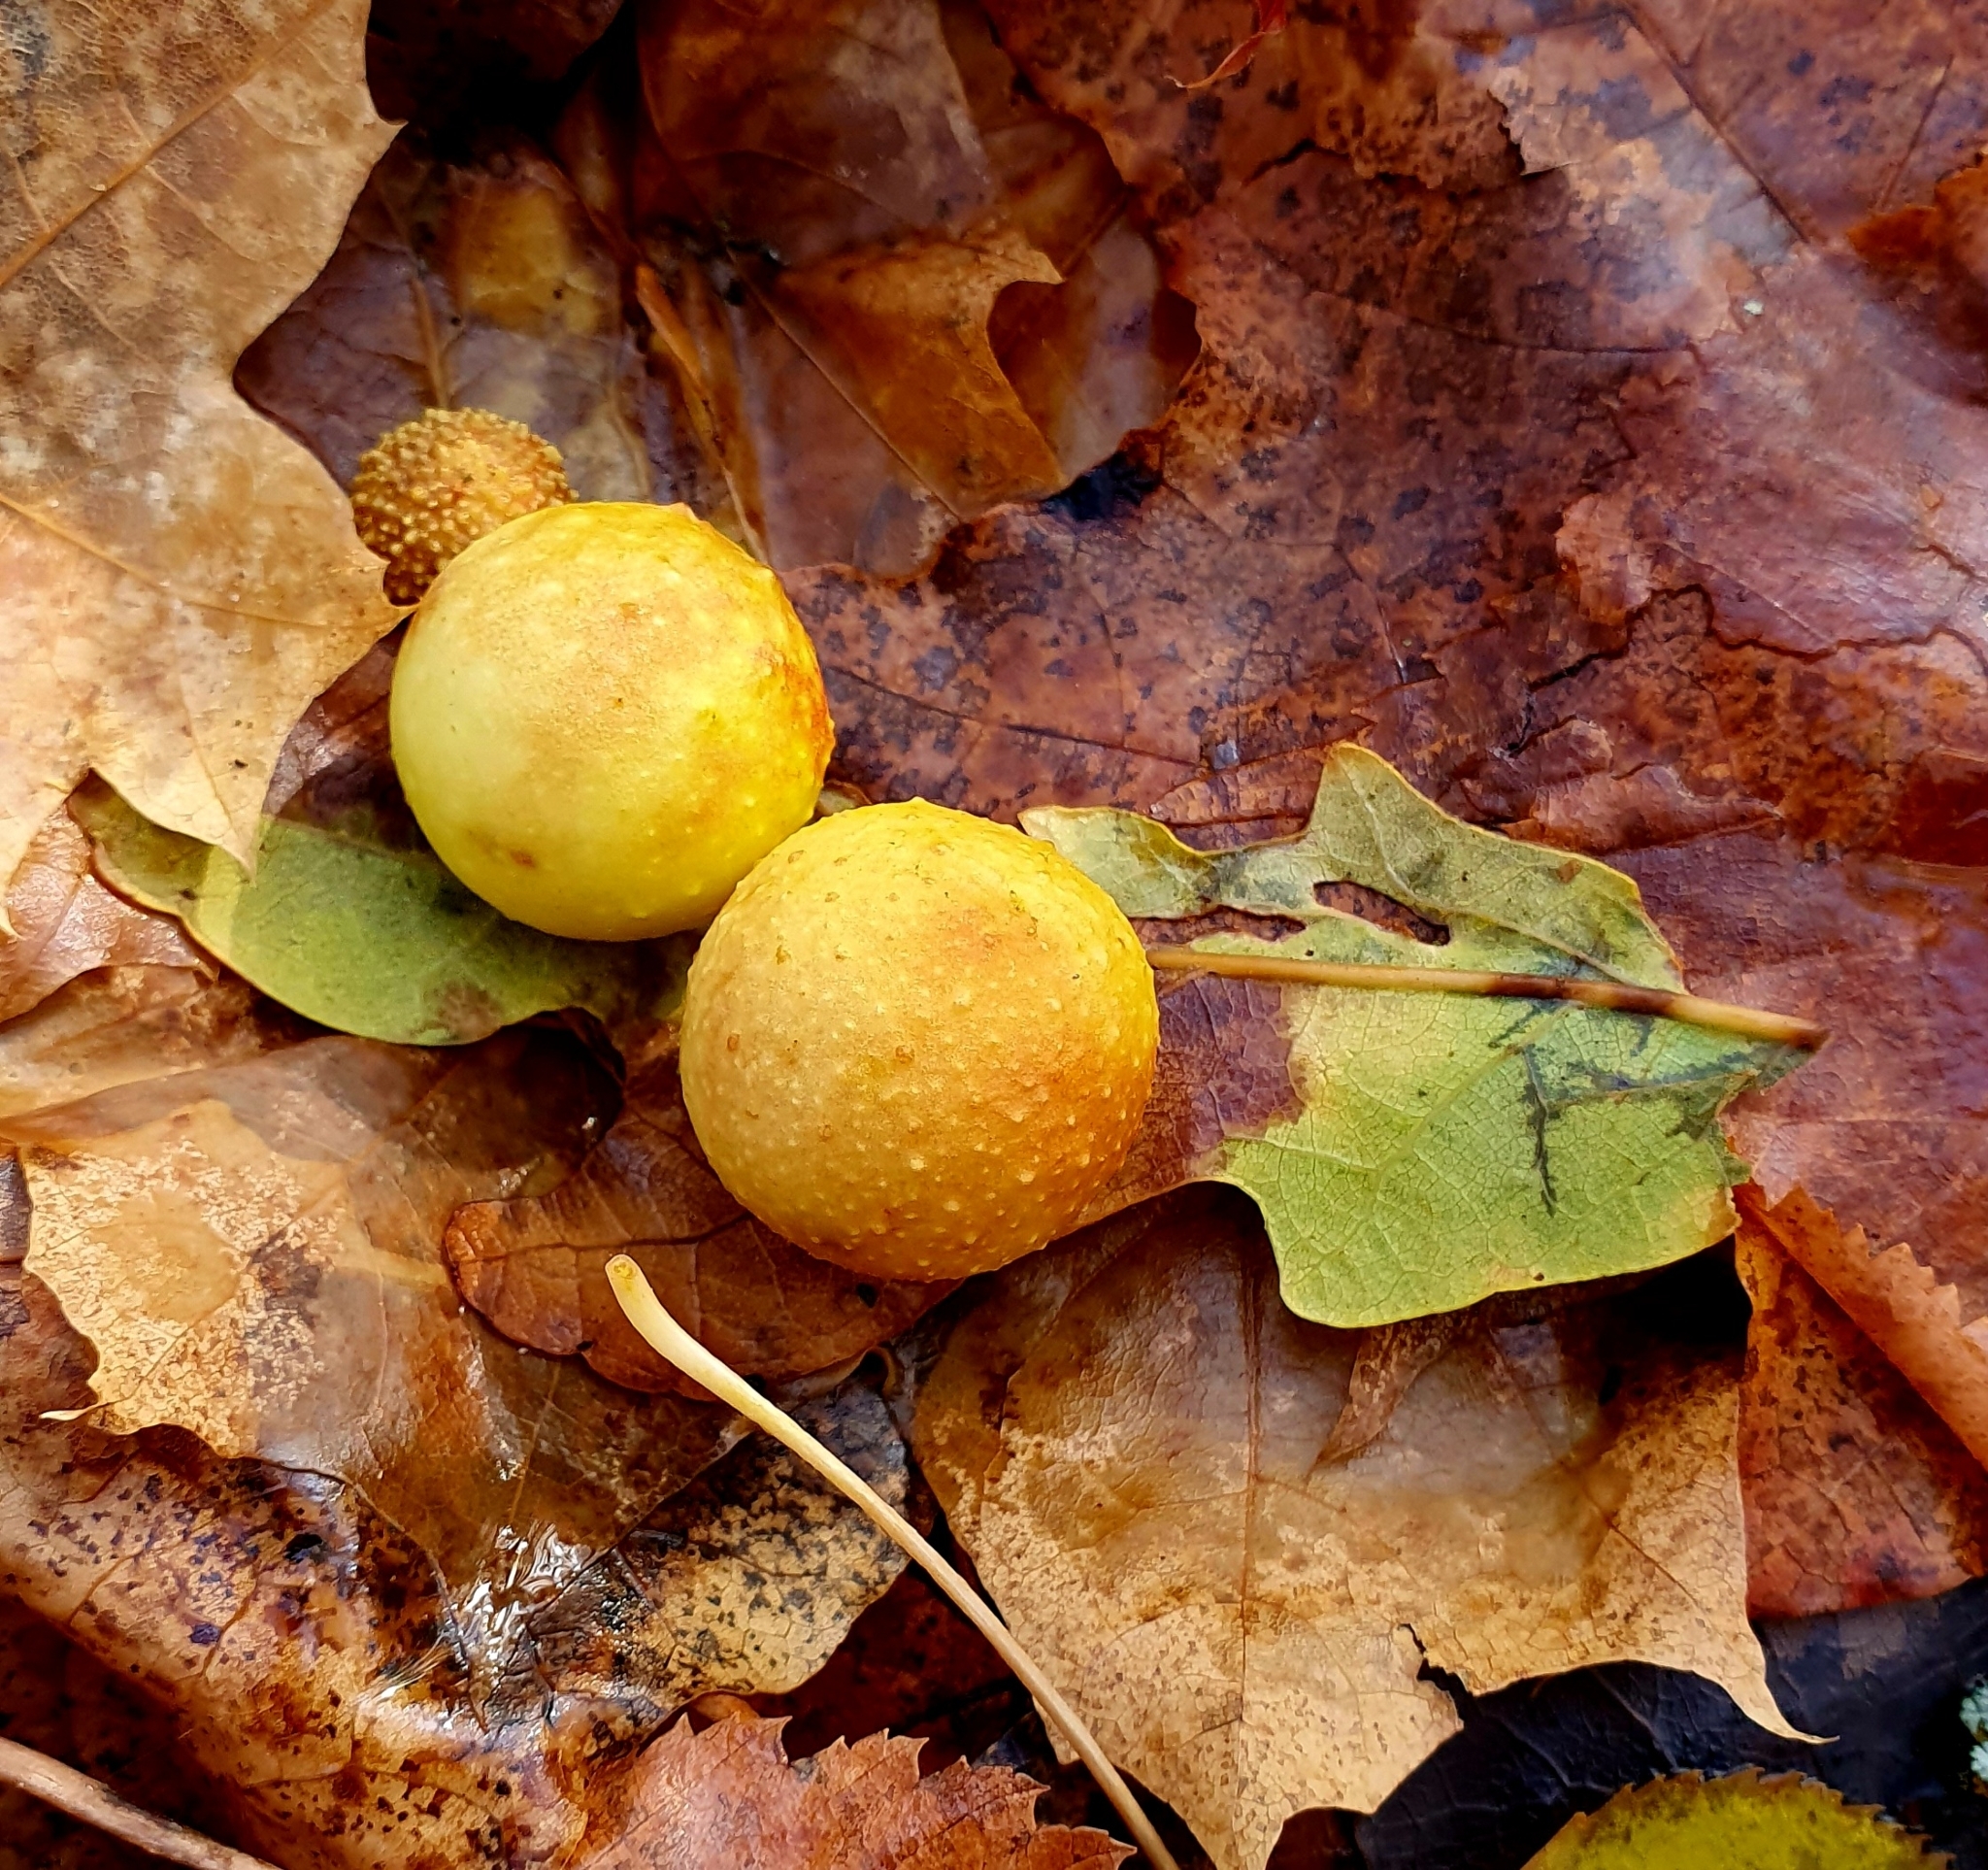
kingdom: Animalia
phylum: Arthropoda
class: Insecta
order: Hymenoptera
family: Cynipidae
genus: Cynips
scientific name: Cynips quercusfolii
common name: Cherry gall
